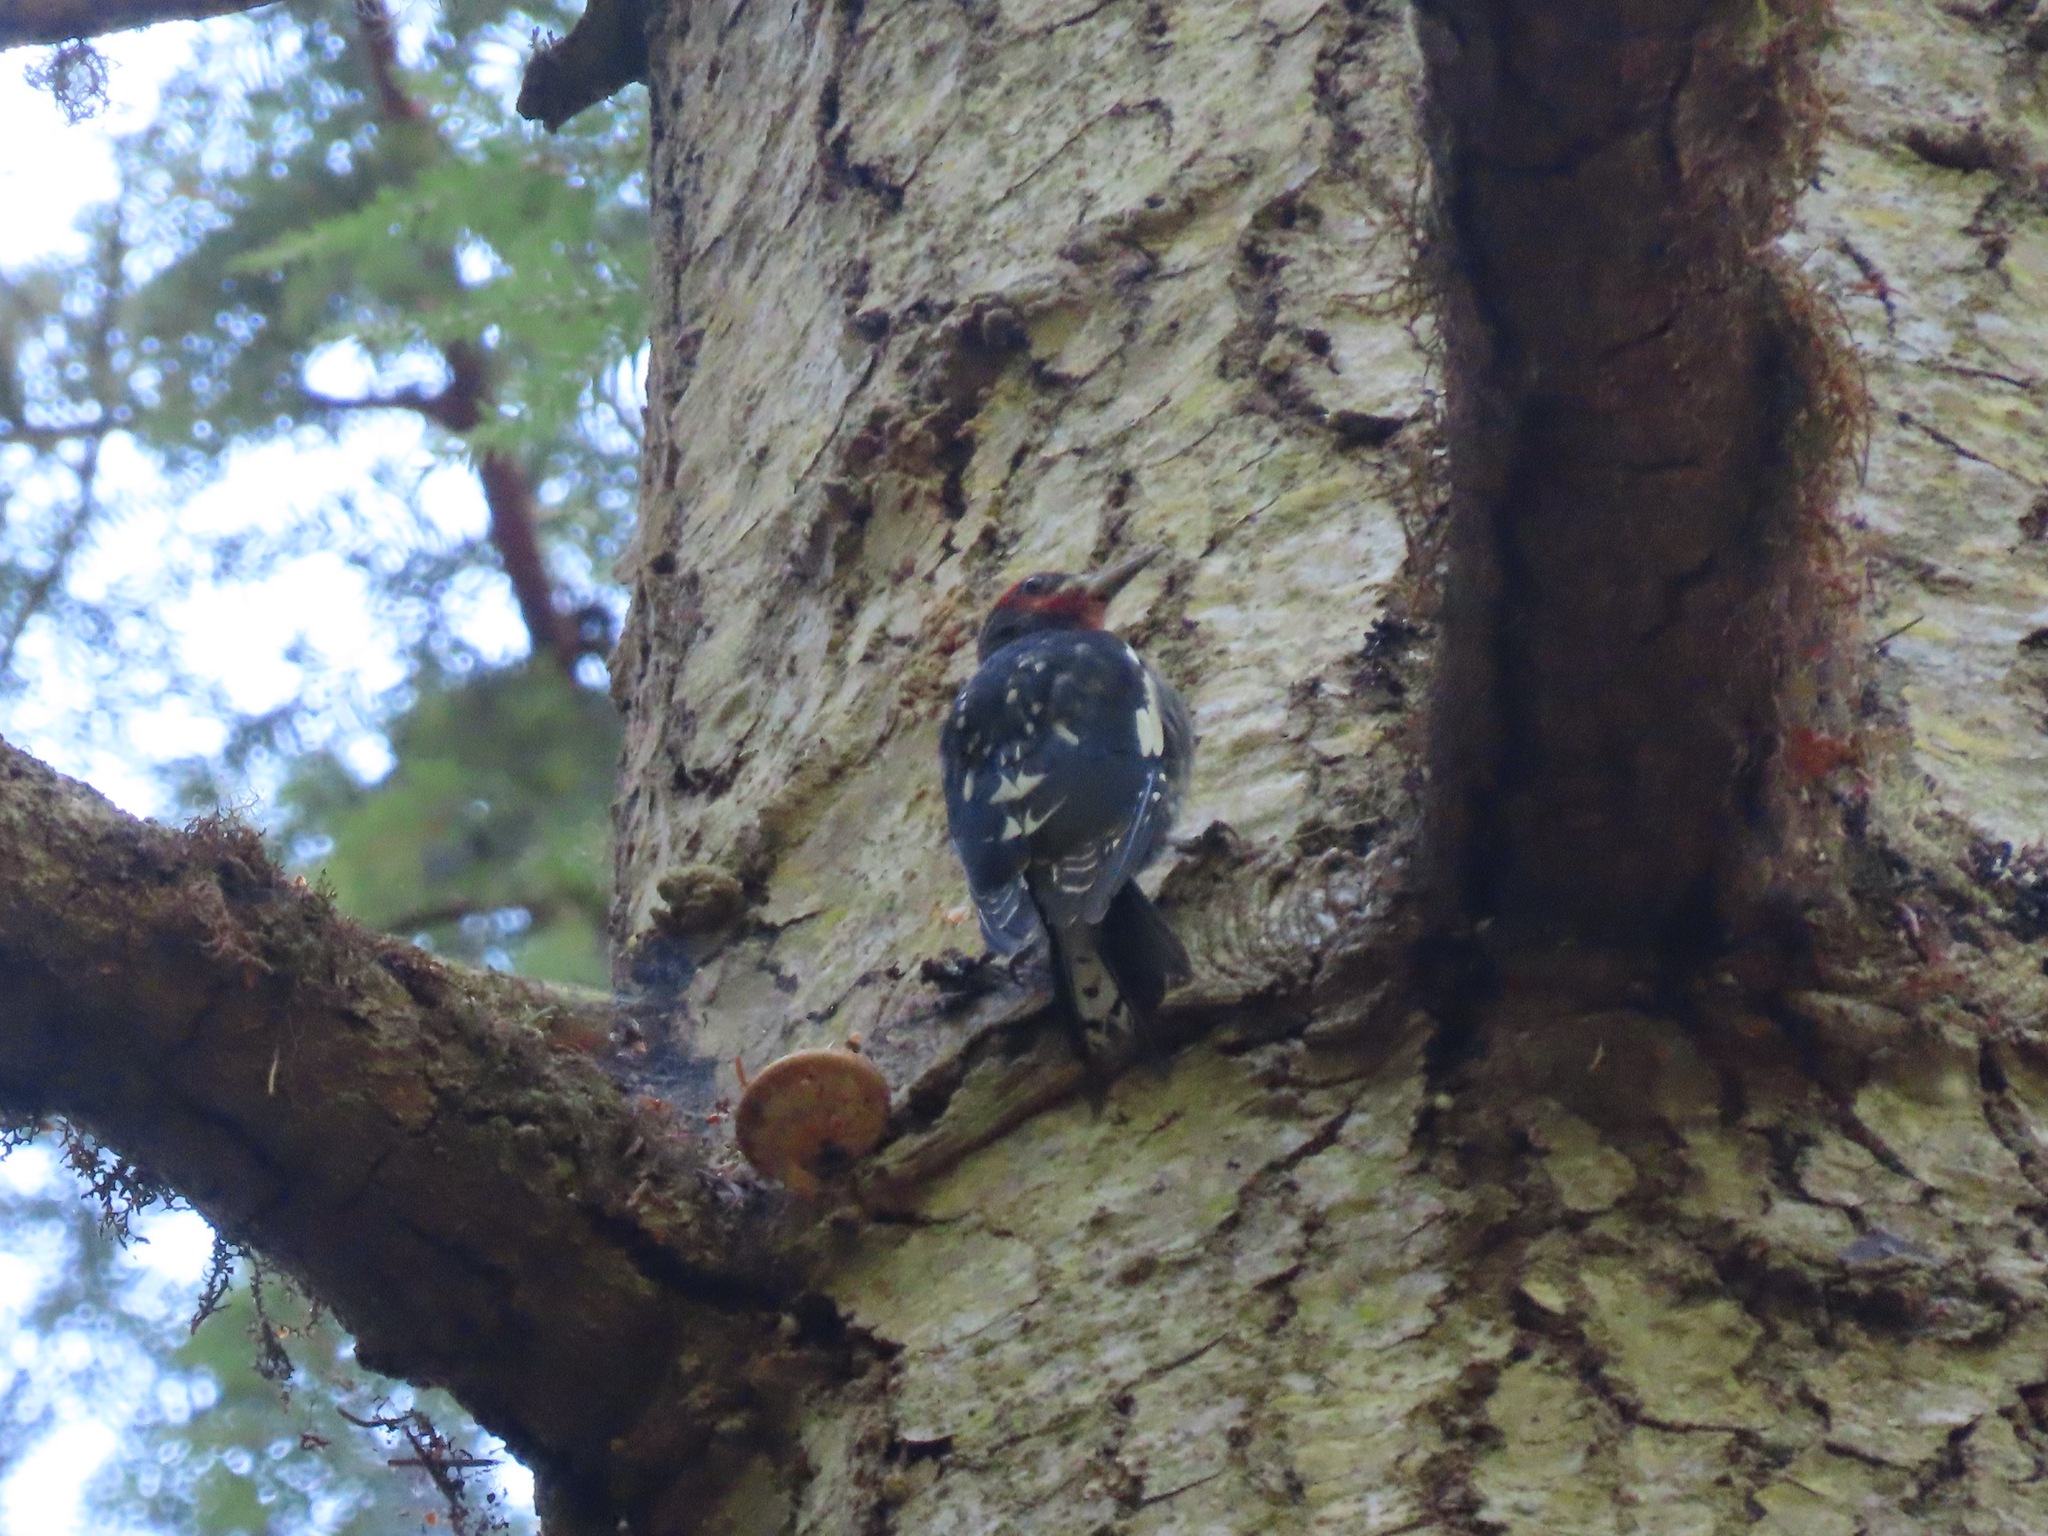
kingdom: Animalia
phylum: Chordata
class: Aves
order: Piciformes
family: Picidae
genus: Sphyrapicus
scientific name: Sphyrapicus ruber
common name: Red-breasted sapsucker
